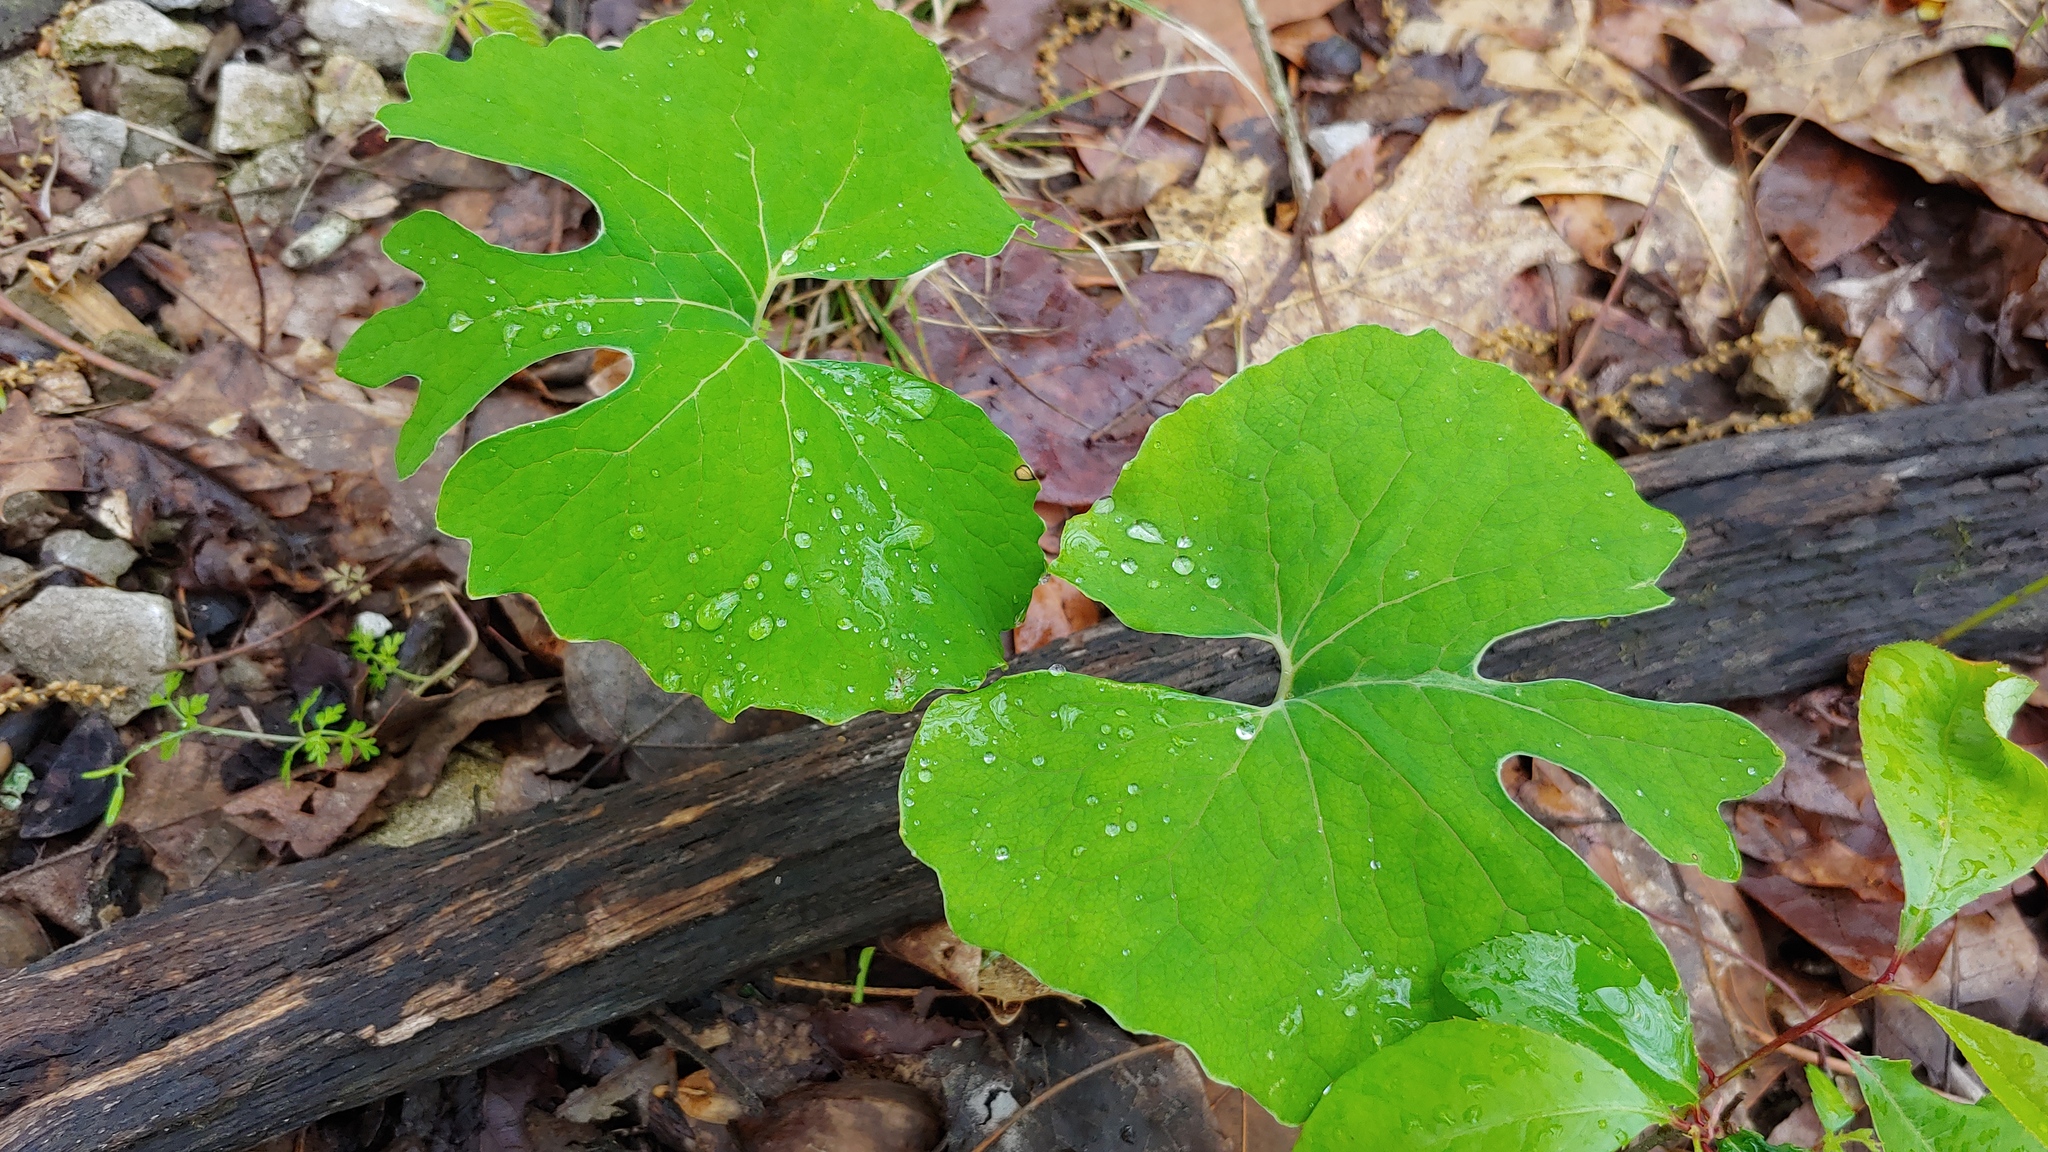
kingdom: Plantae
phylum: Tracheophyta
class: Magnoliopsida
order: Ranunculales
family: Papaveraceae
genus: Sanguinaria
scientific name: Sanguinaria canadensis
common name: Bloodroot
